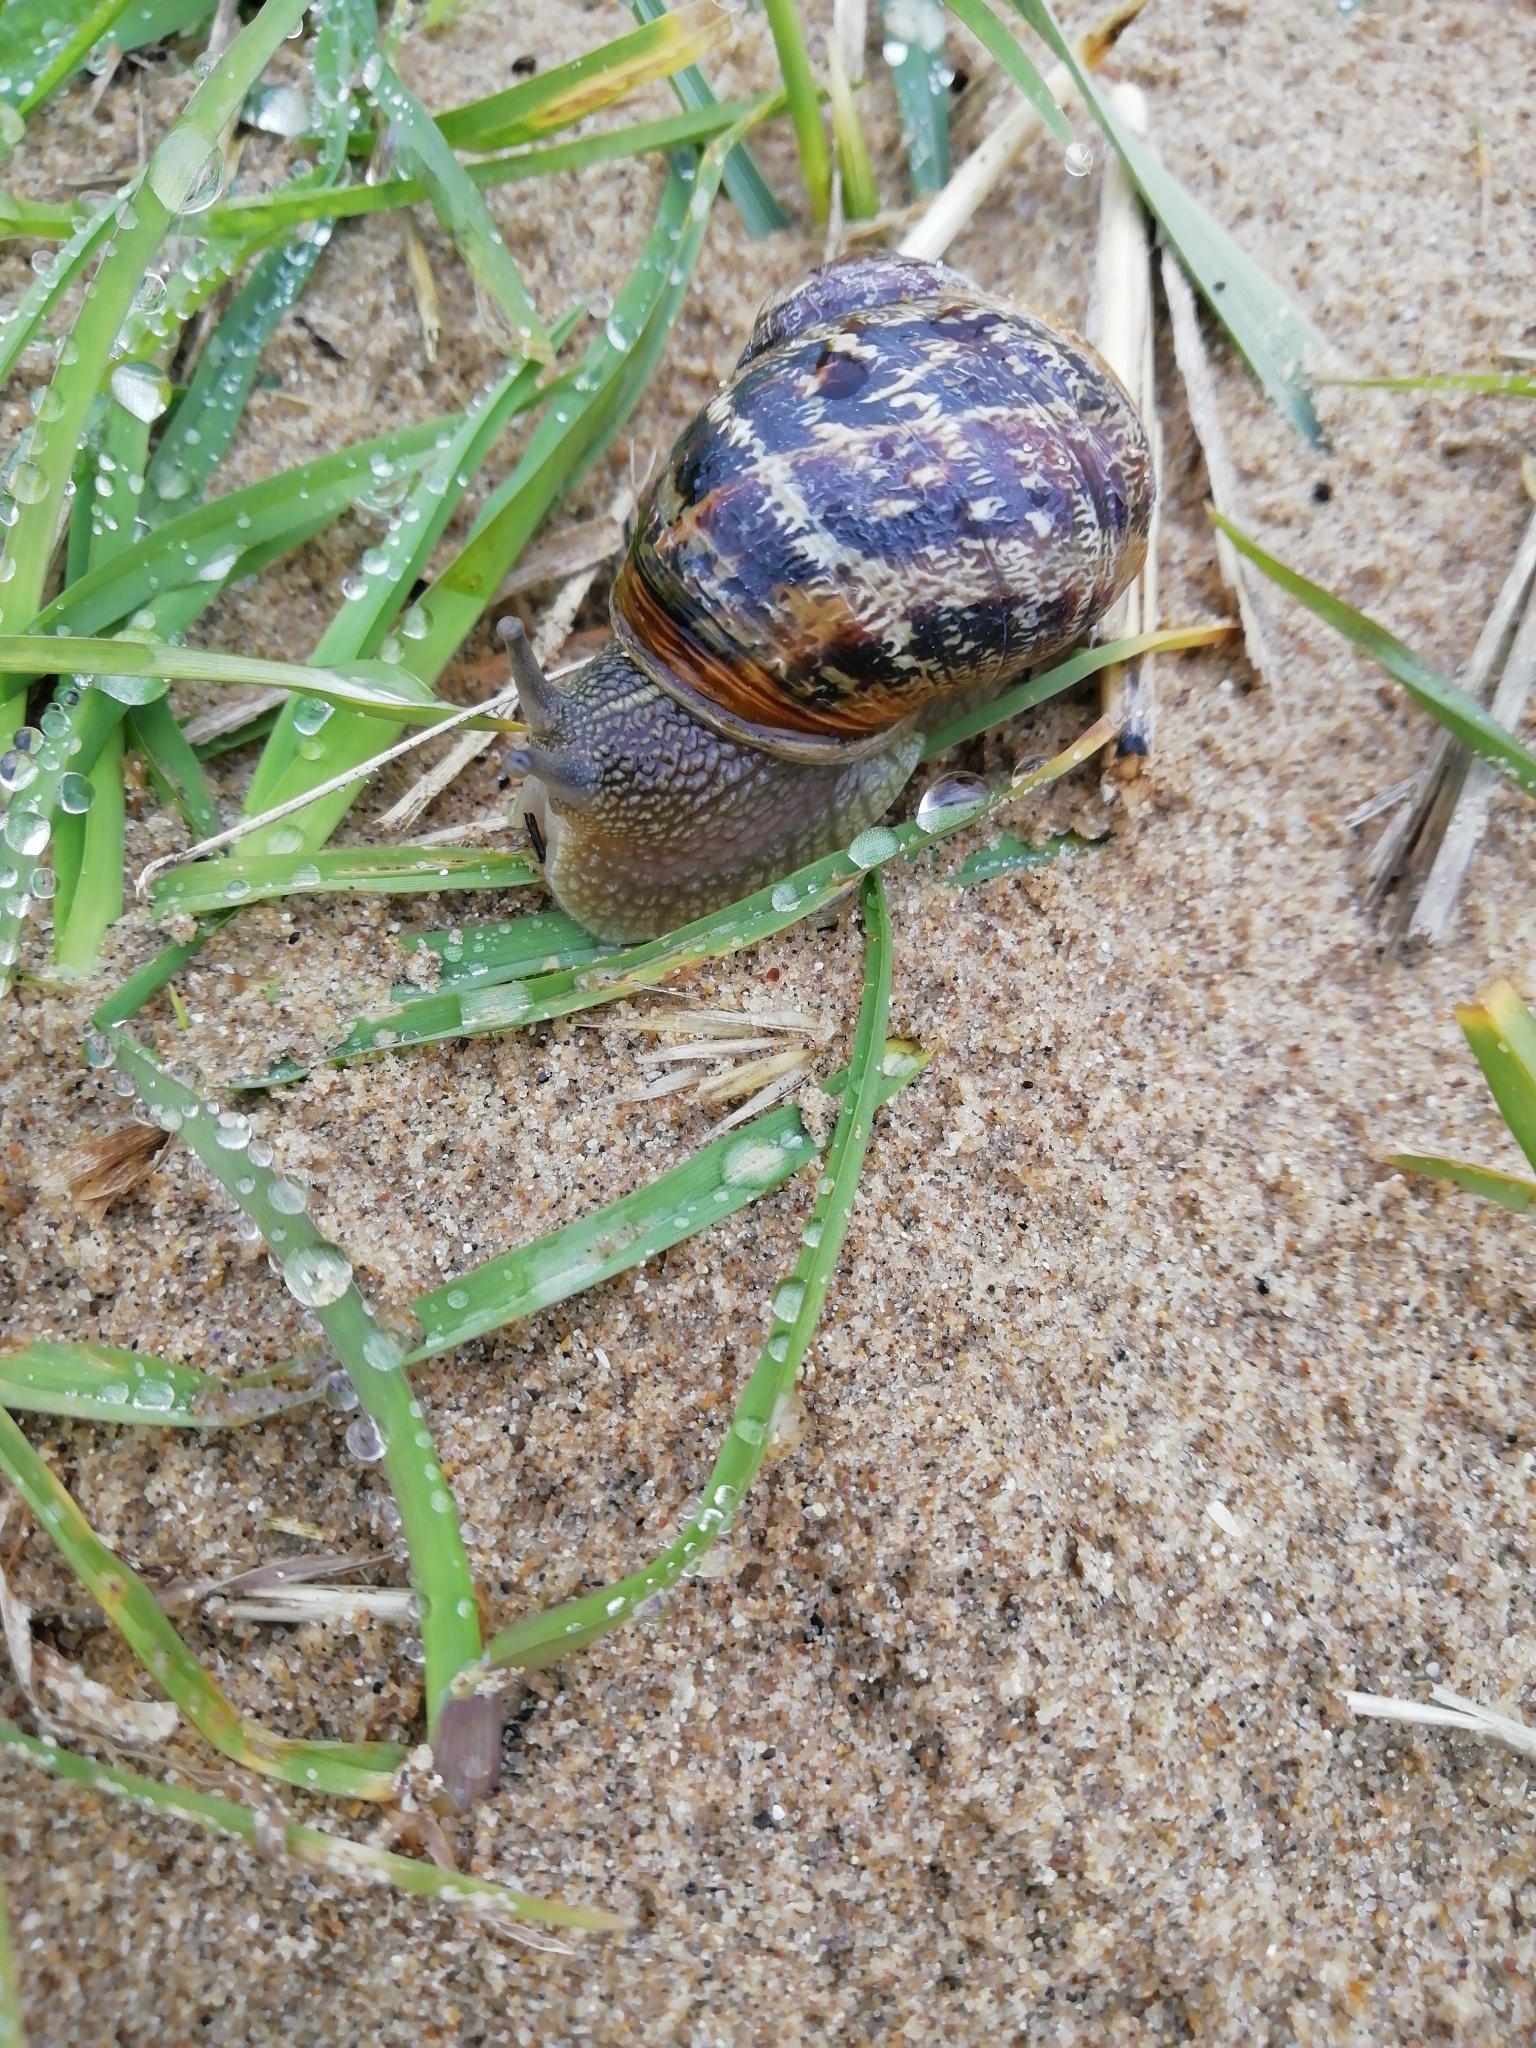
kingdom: Animalia
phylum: Mollusca
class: Gastropoda
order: Stylommatophora
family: Helicidae
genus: Cornu
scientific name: Cornu aspersum
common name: Brown garden snail
